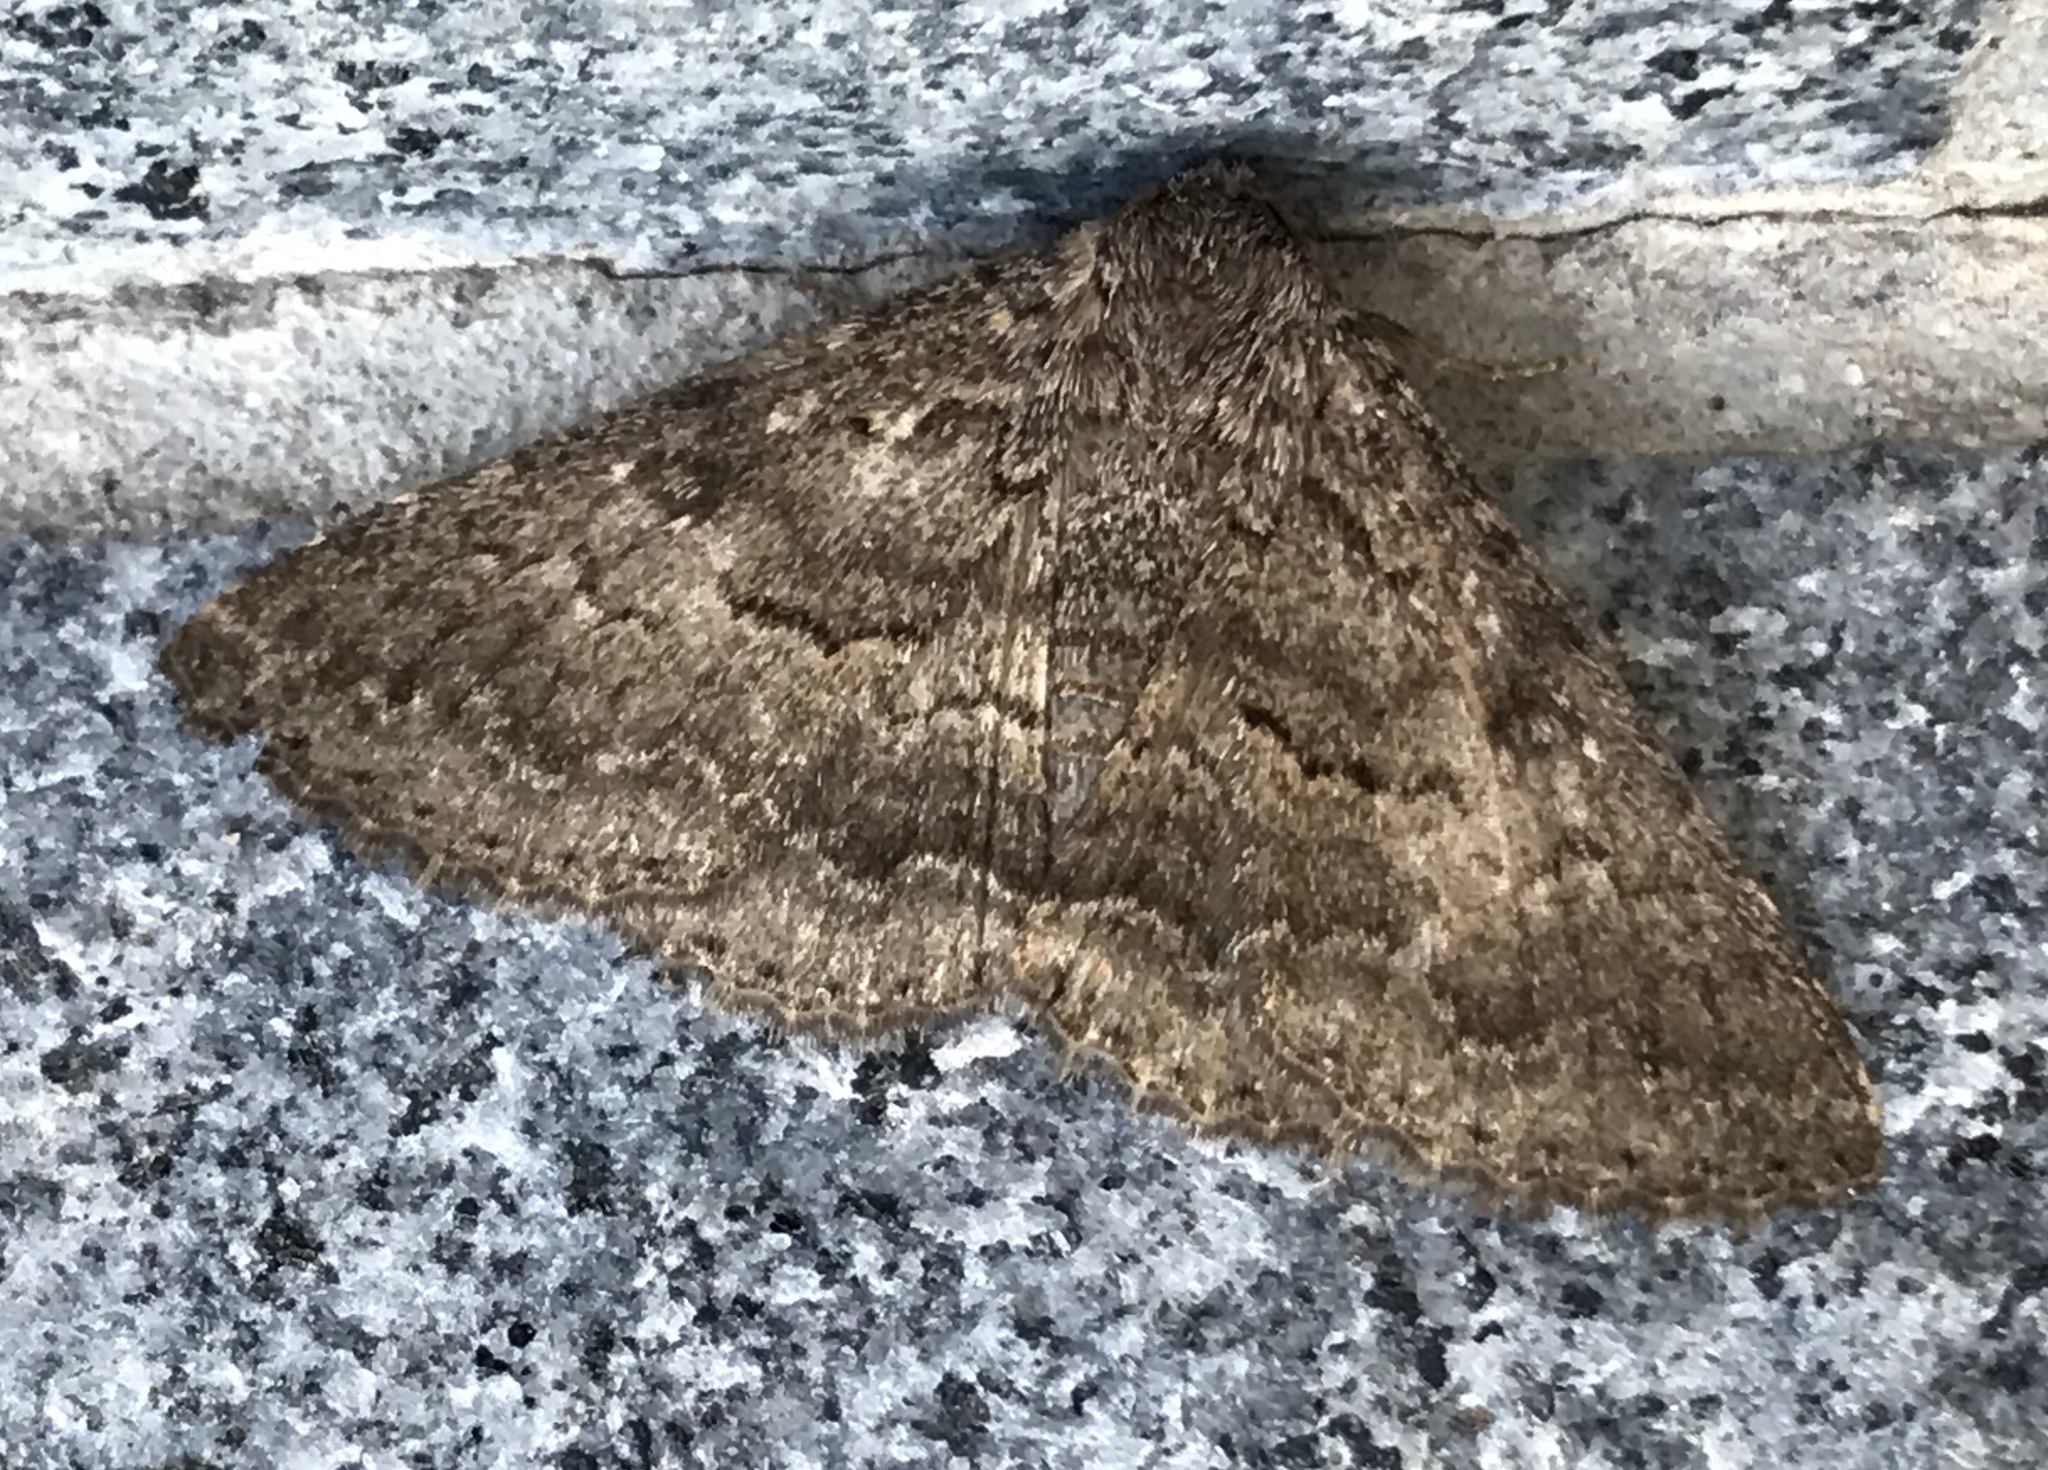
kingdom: Animalia
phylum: Arthropoda
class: Insecta
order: Lepidoptera
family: Erebidae
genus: Eudesmeola
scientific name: Eudesmeola lawsoni
